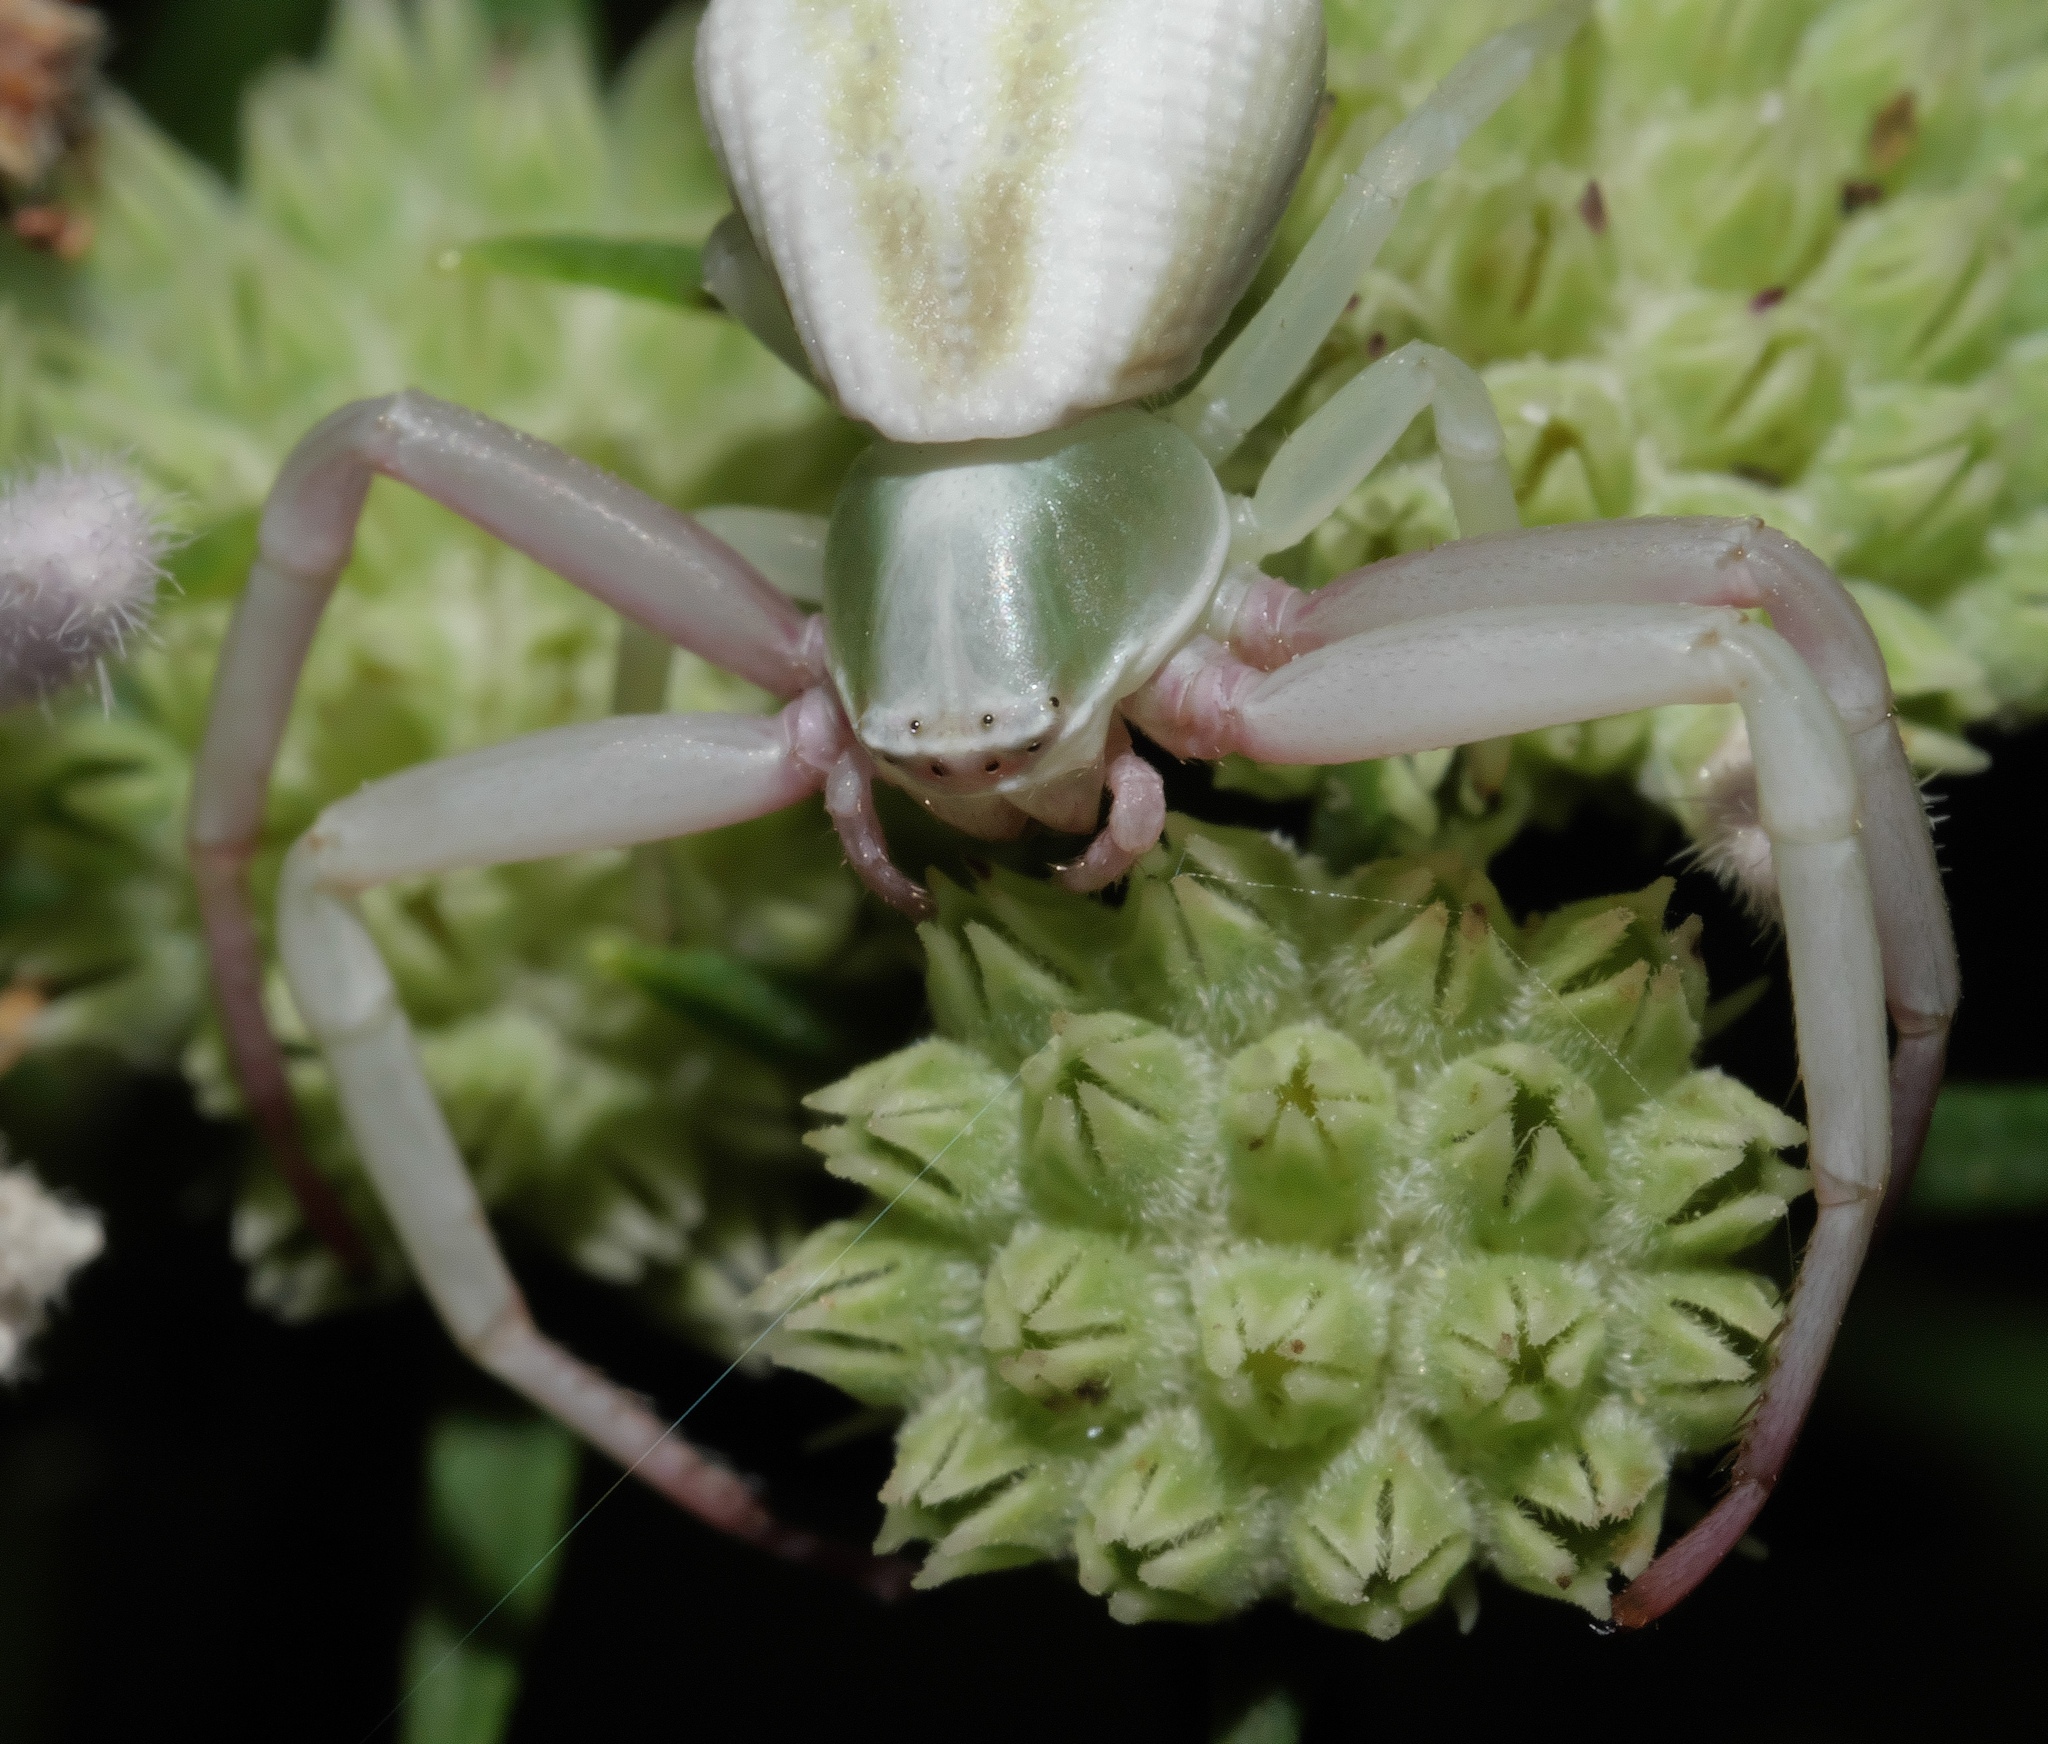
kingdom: Animalia
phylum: Arthropoda
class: Arachnida
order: Araneae
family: Thomisidae
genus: Misumenoides
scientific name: Misumenoides formosipes
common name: White-banded crab spider
